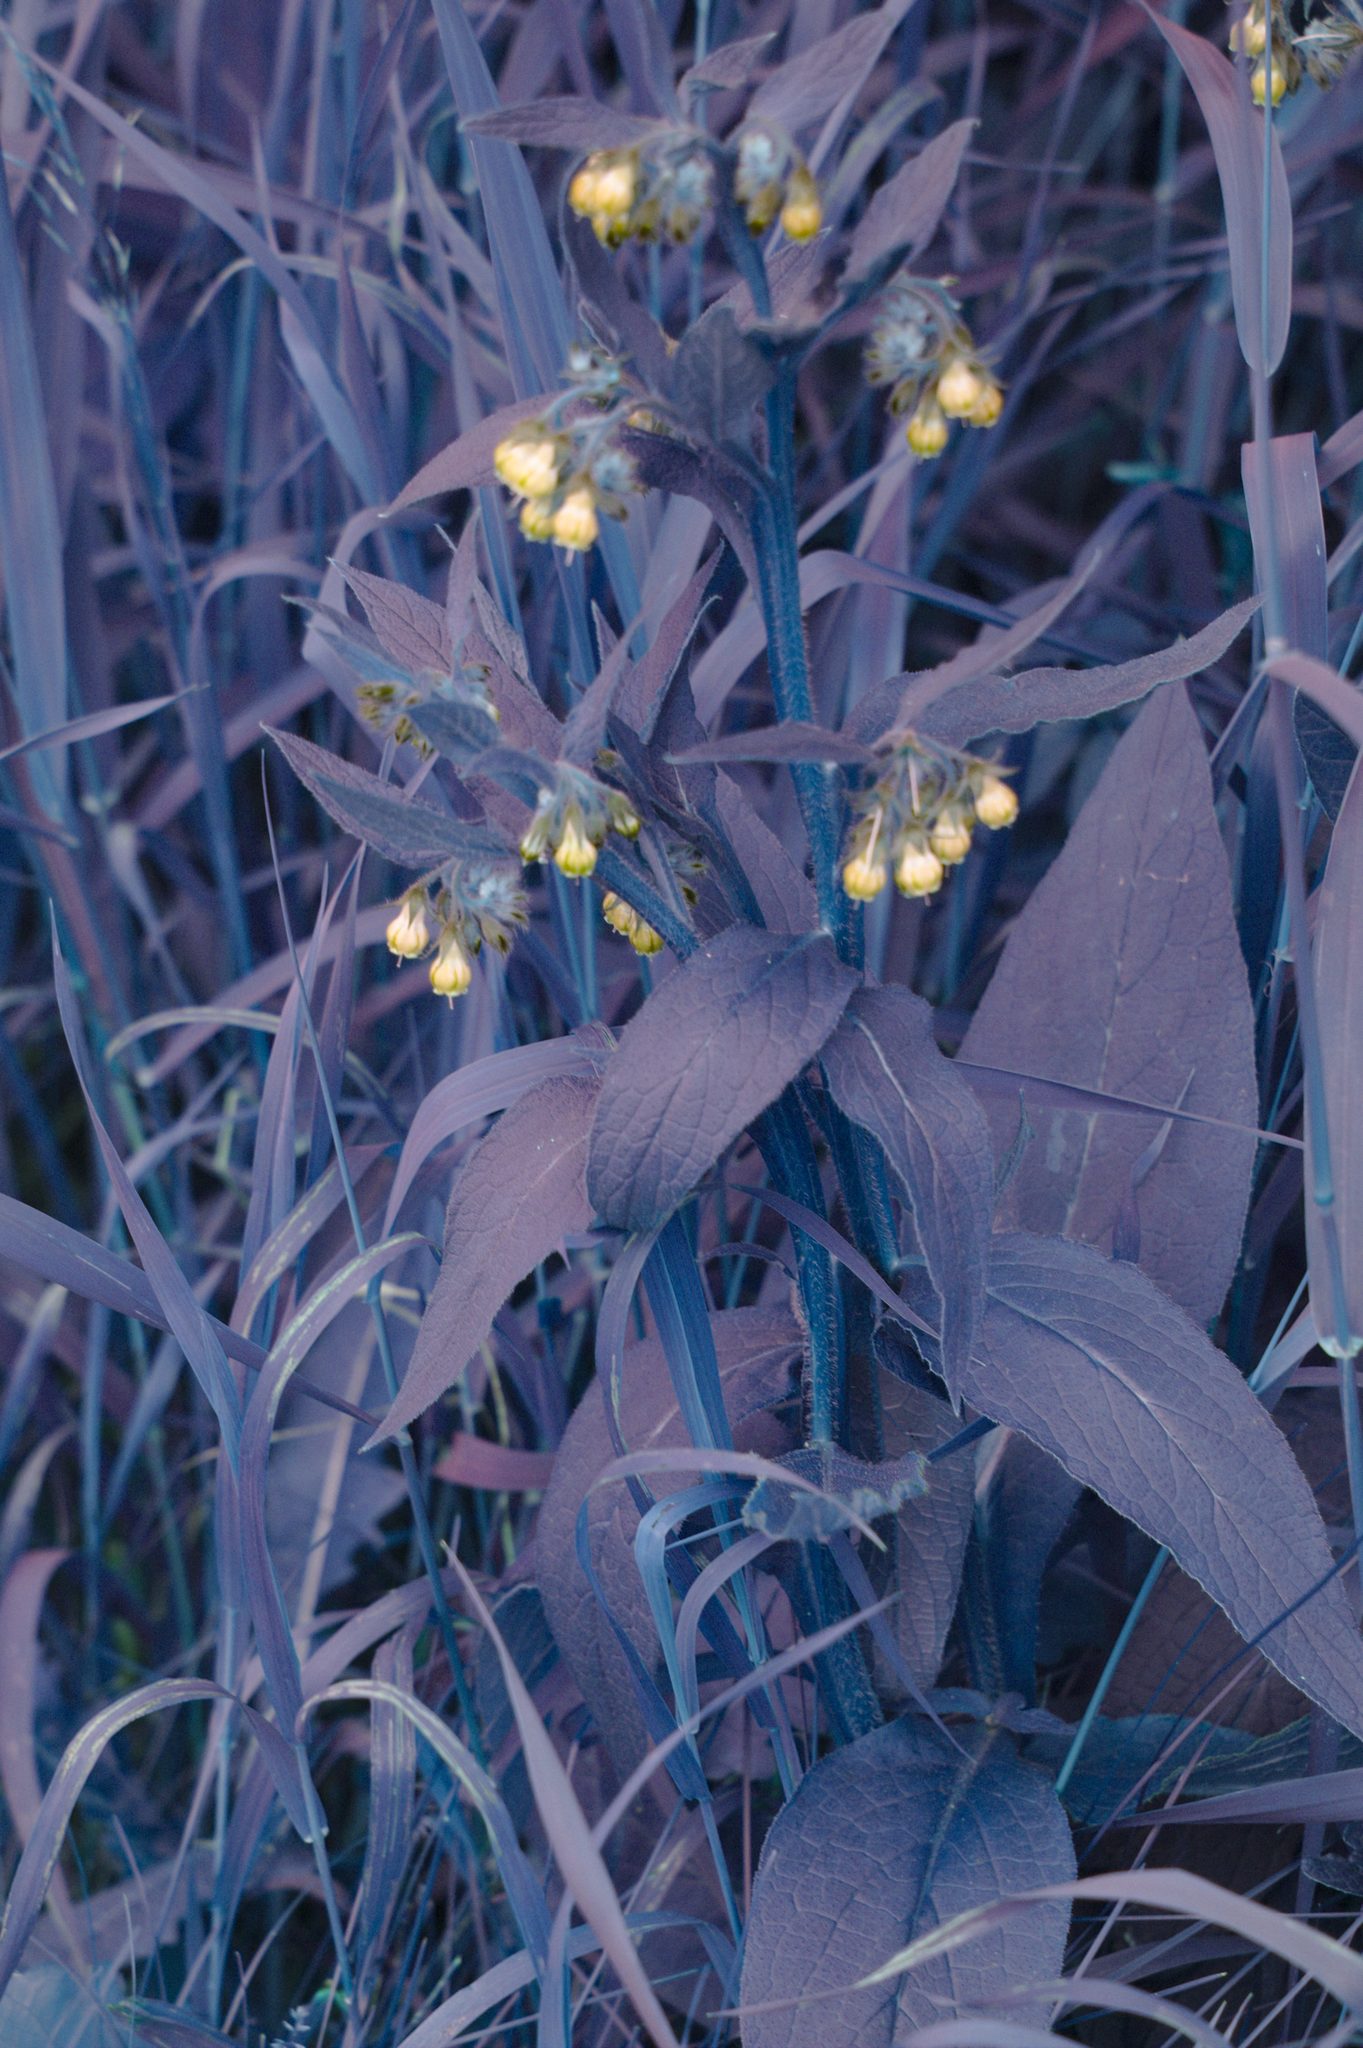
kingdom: Plantae
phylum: Tracheophyta
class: Magnoliopsida
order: Boraginales
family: Boraginaceae
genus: Symphytum
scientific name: Symphytum officinale
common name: Common comfrey
